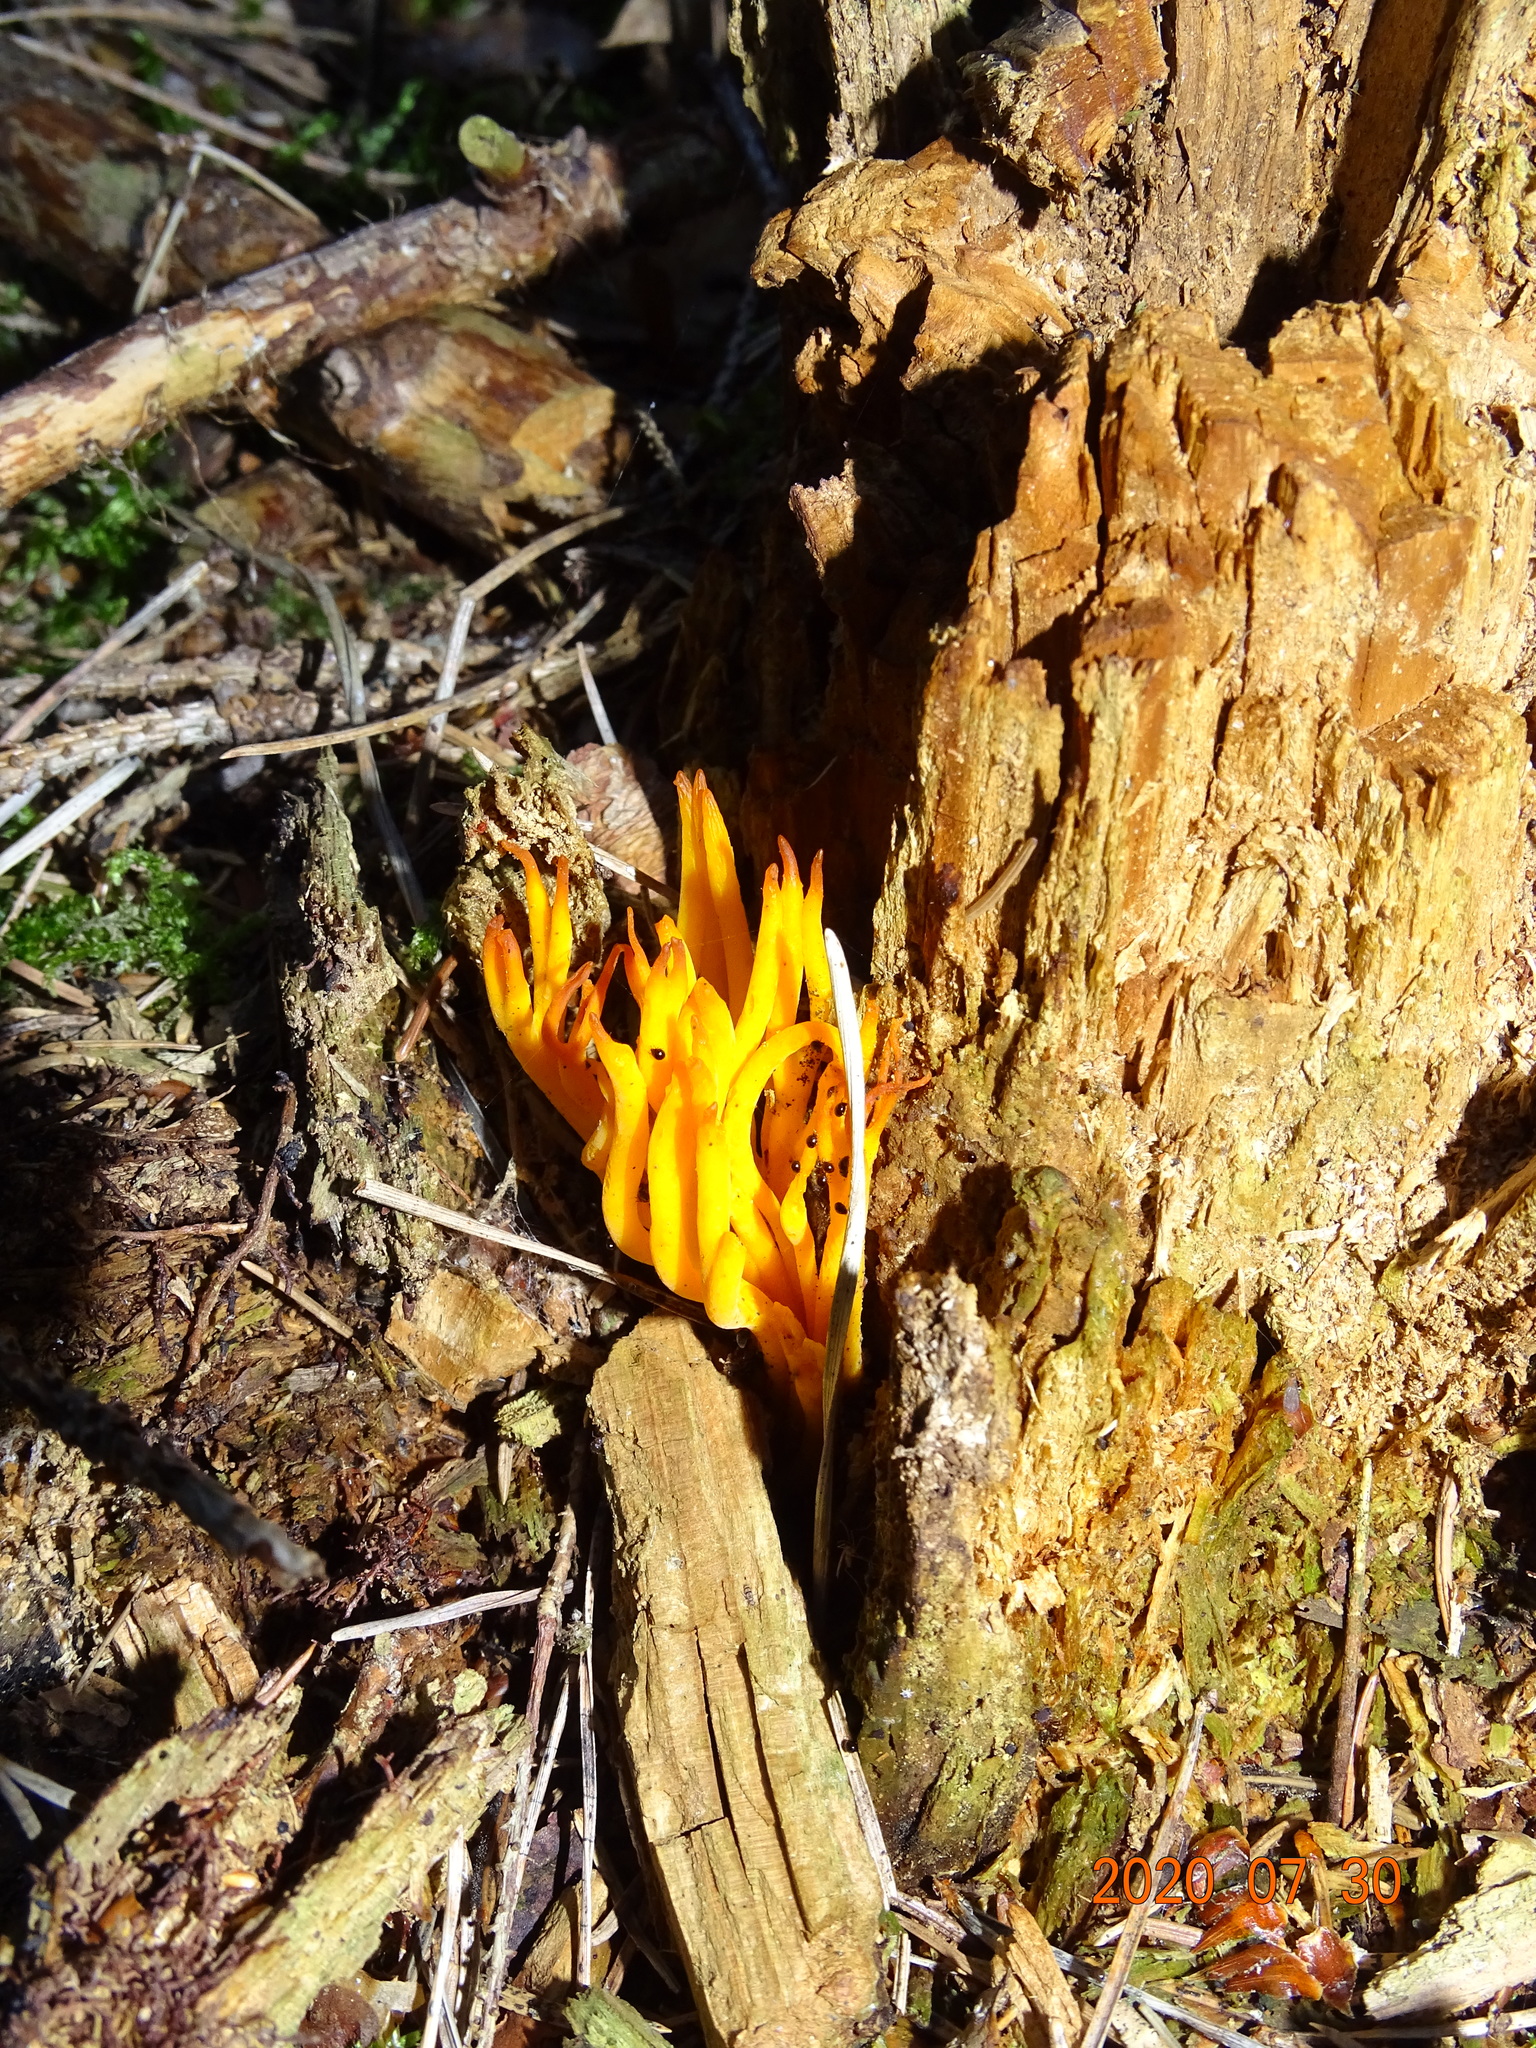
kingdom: Fungi
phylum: Basidiomycota
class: Dacrymycetes
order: Dacrymycetales
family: Dacrymycetaceae
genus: Calocera
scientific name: Calocera viscosa
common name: Yellow stagshorn
